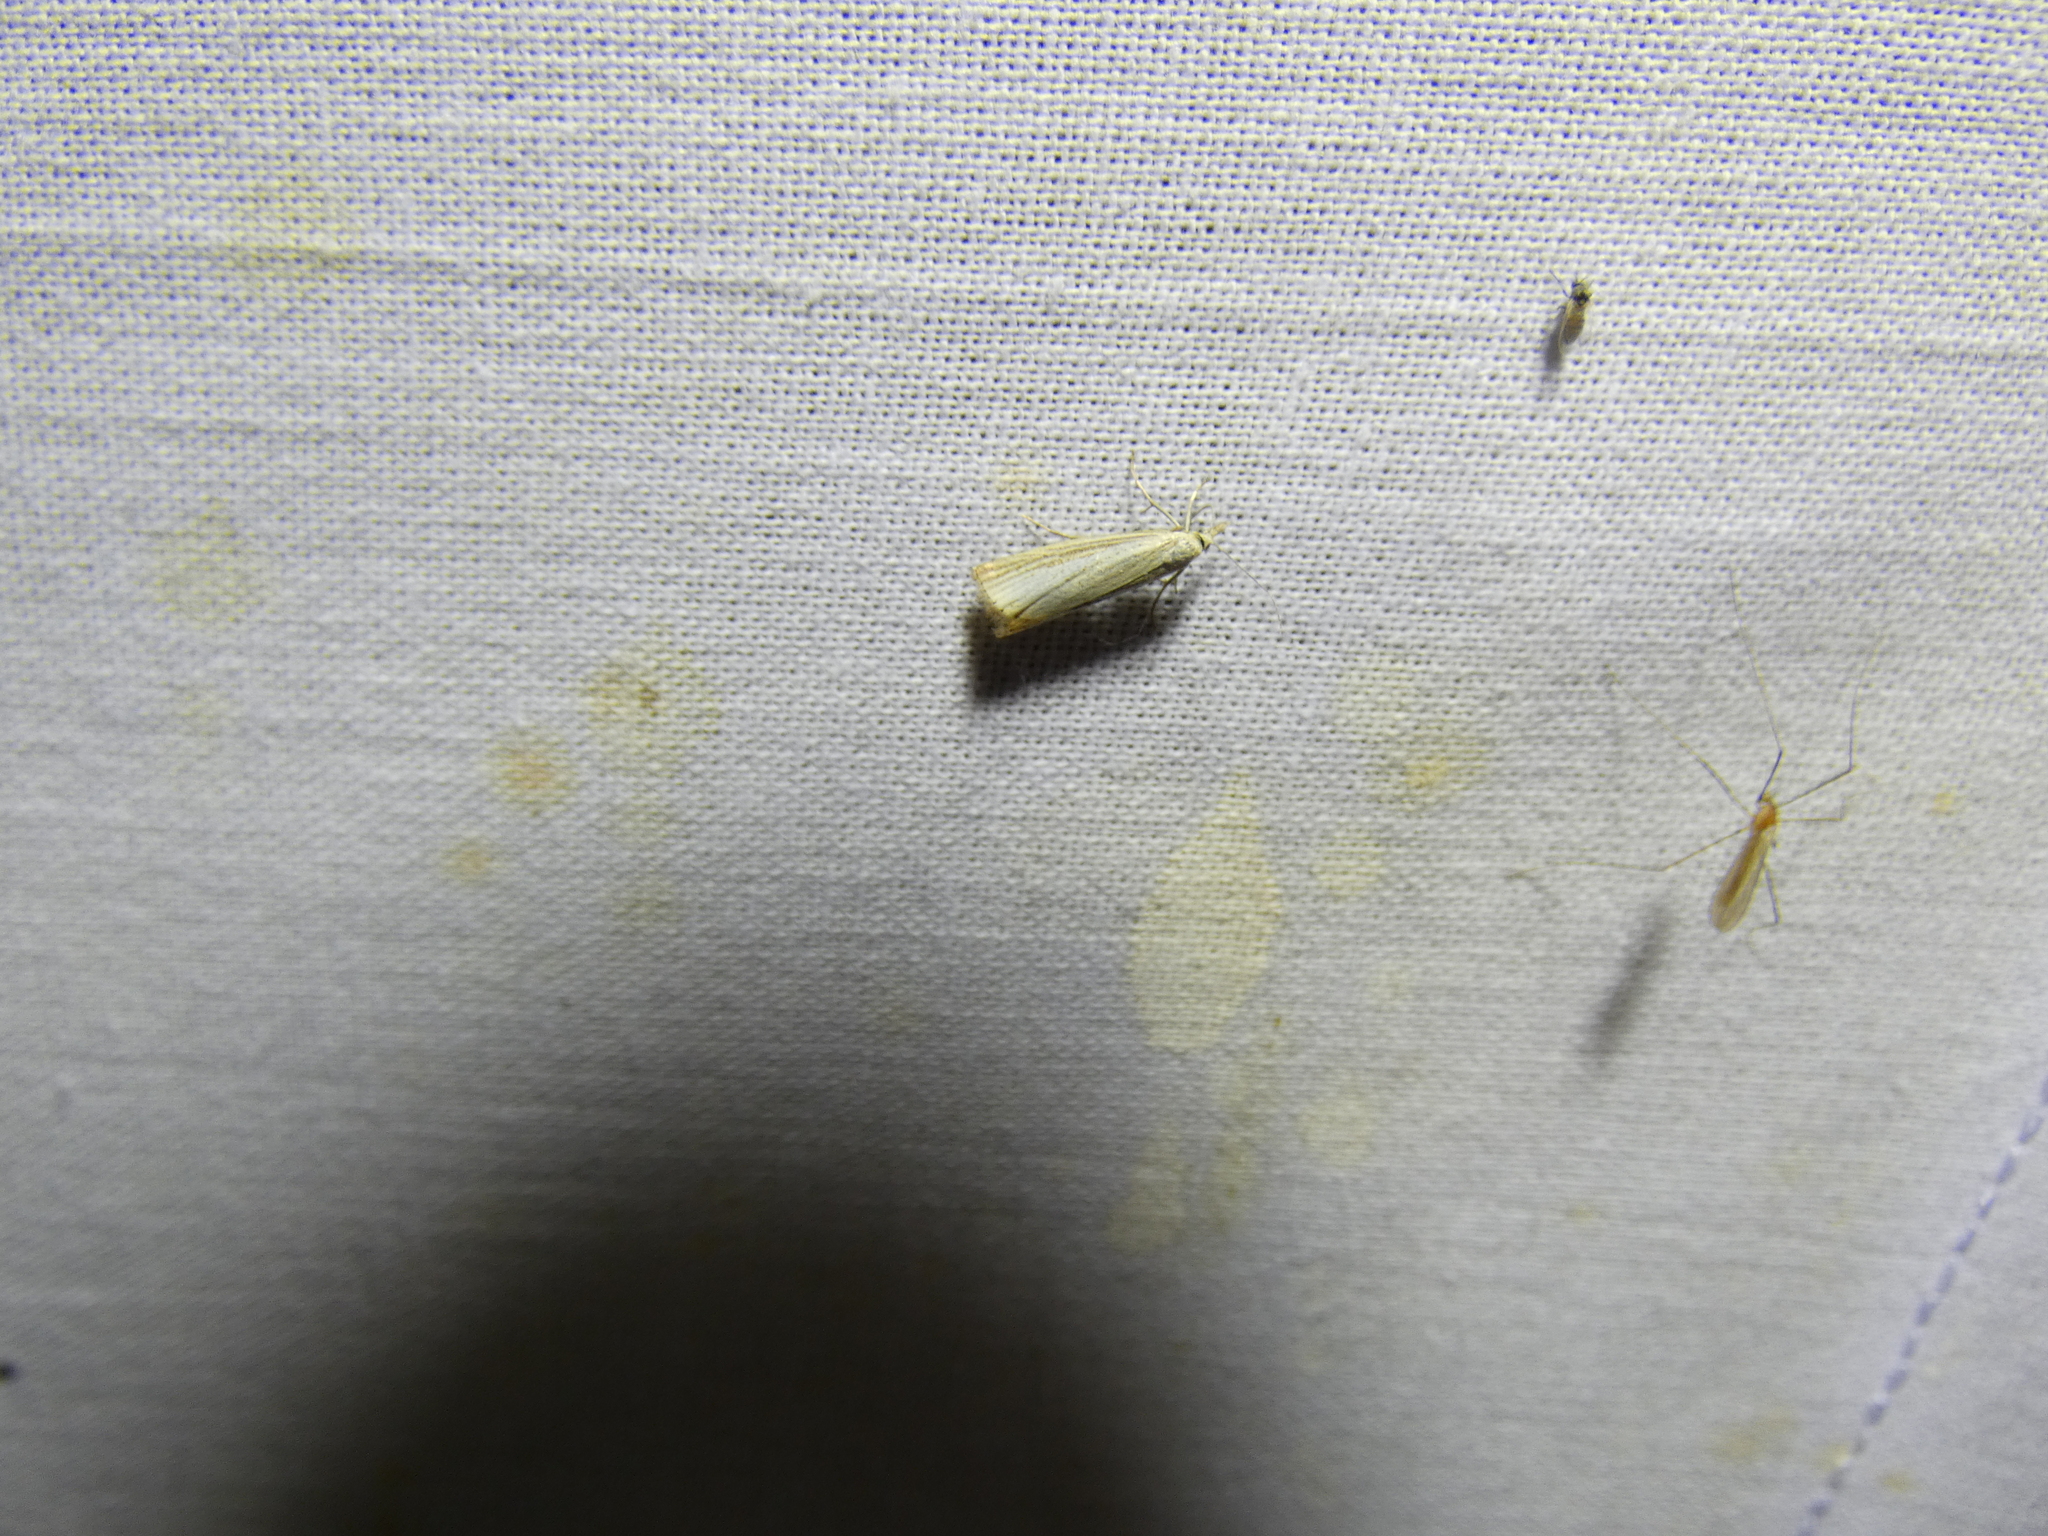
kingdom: Animalia
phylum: Arthropoda
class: Insecta
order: Lepidoptera
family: Crambidae
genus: Agriphila
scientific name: Agriphila straminella
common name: Straw grass-veneer
